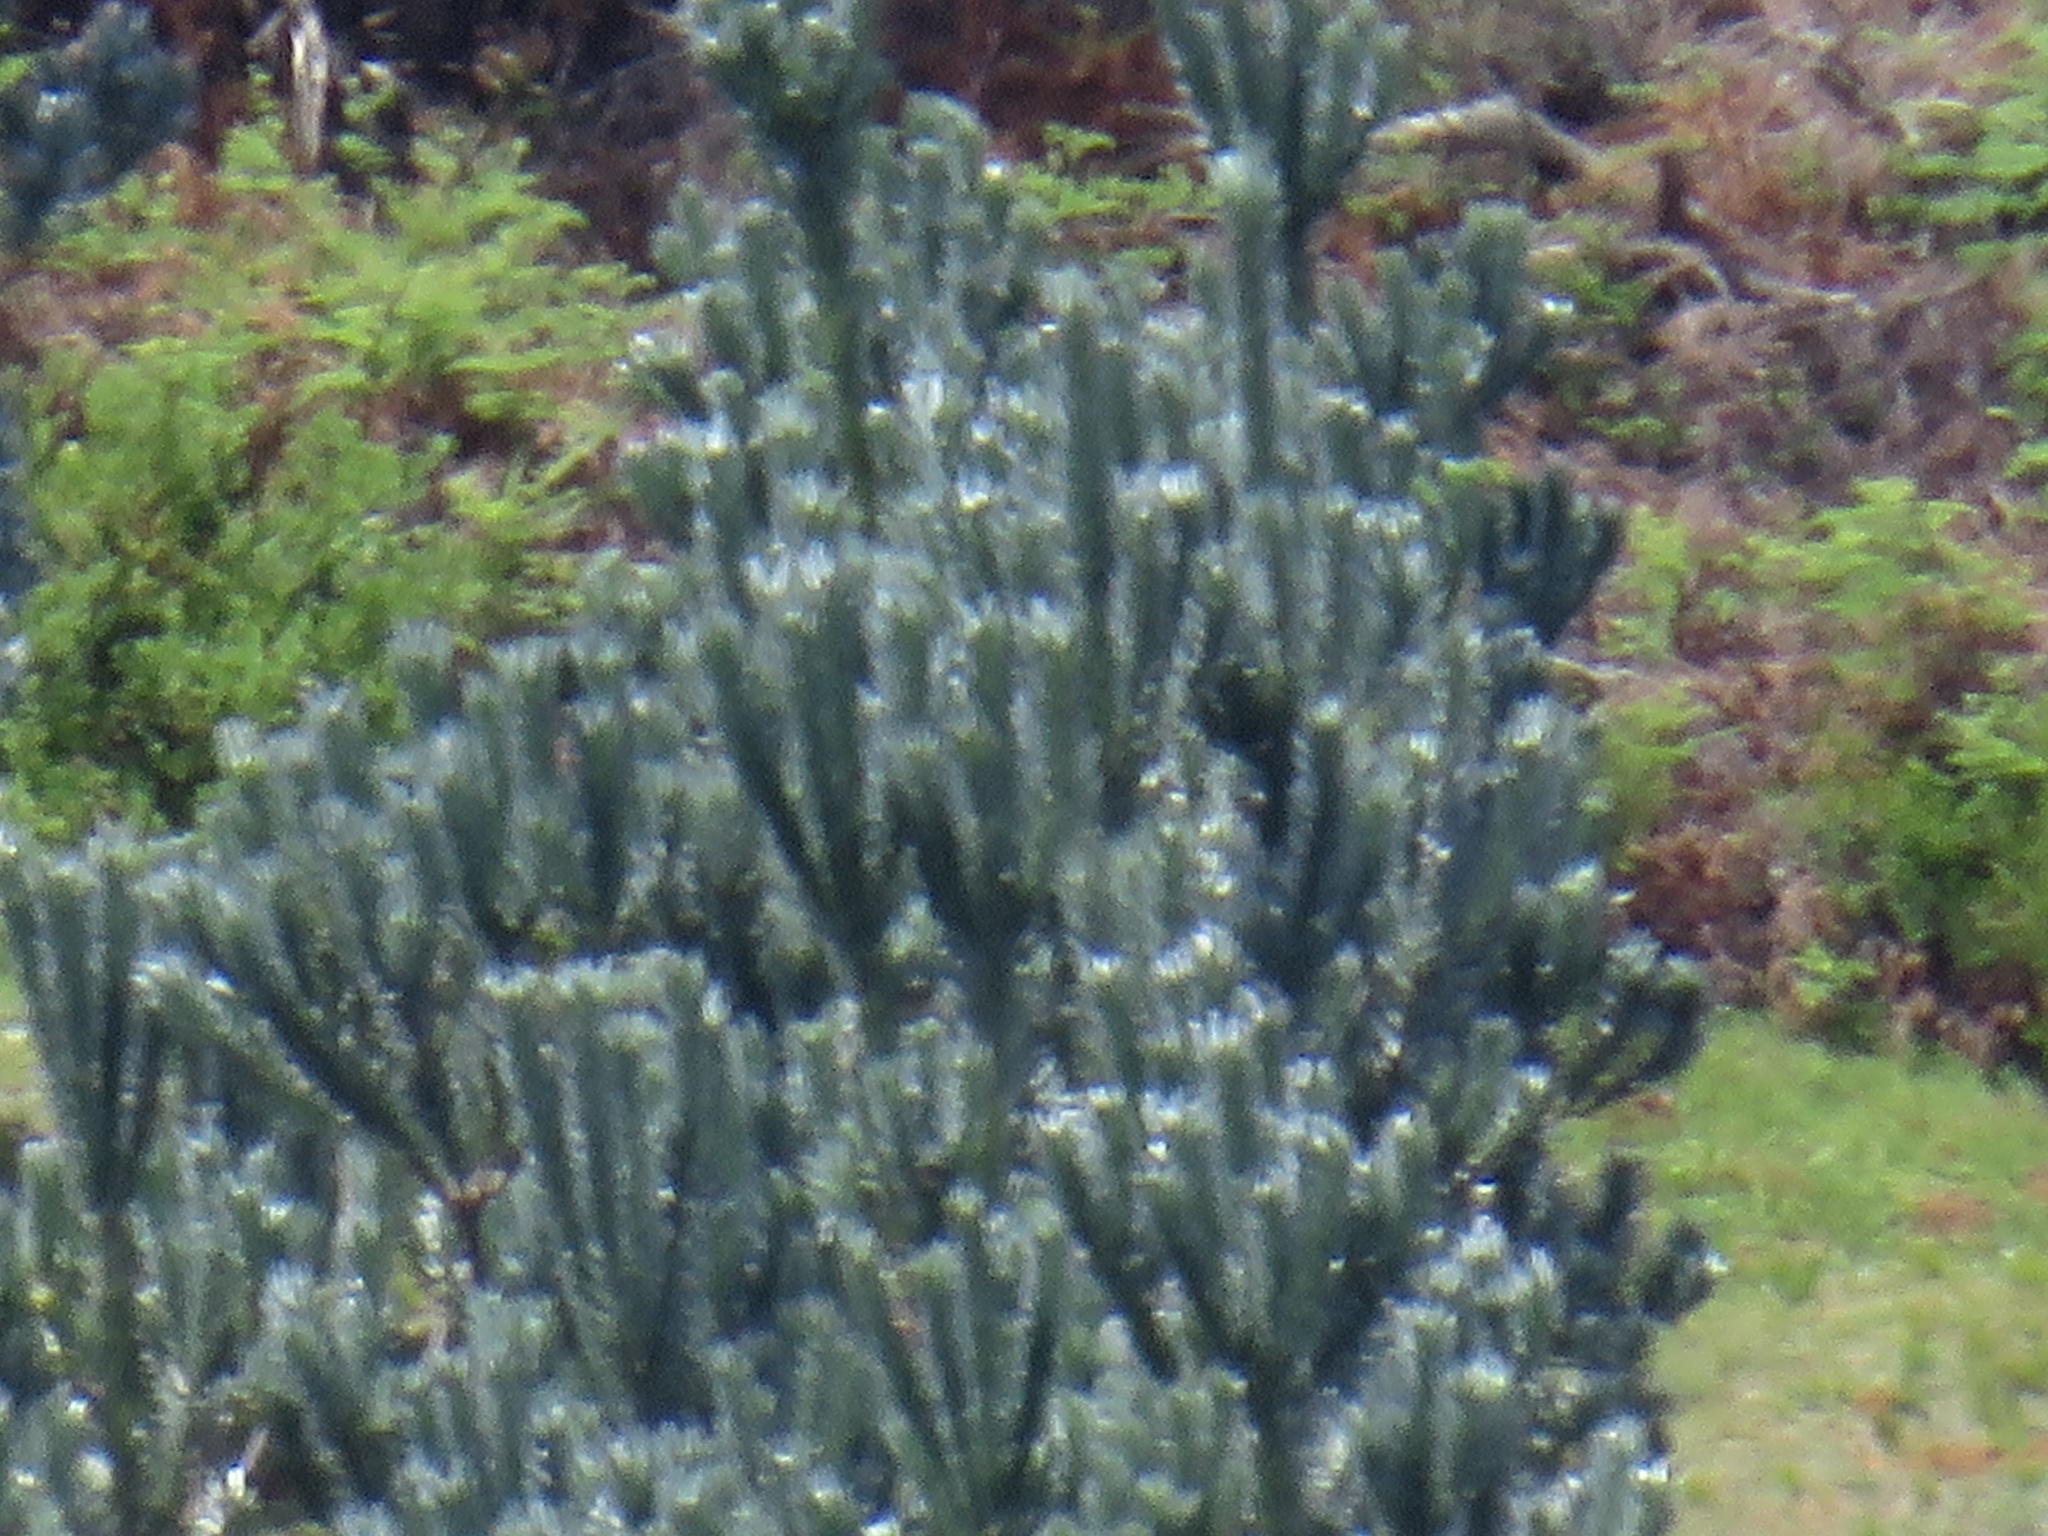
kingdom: Plantae
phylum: Tracheophyta
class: Magnoliopsida
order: Proteales
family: Proteaceae
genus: Leucadendron
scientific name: Leucadendron argenteum
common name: Cape silver tree
